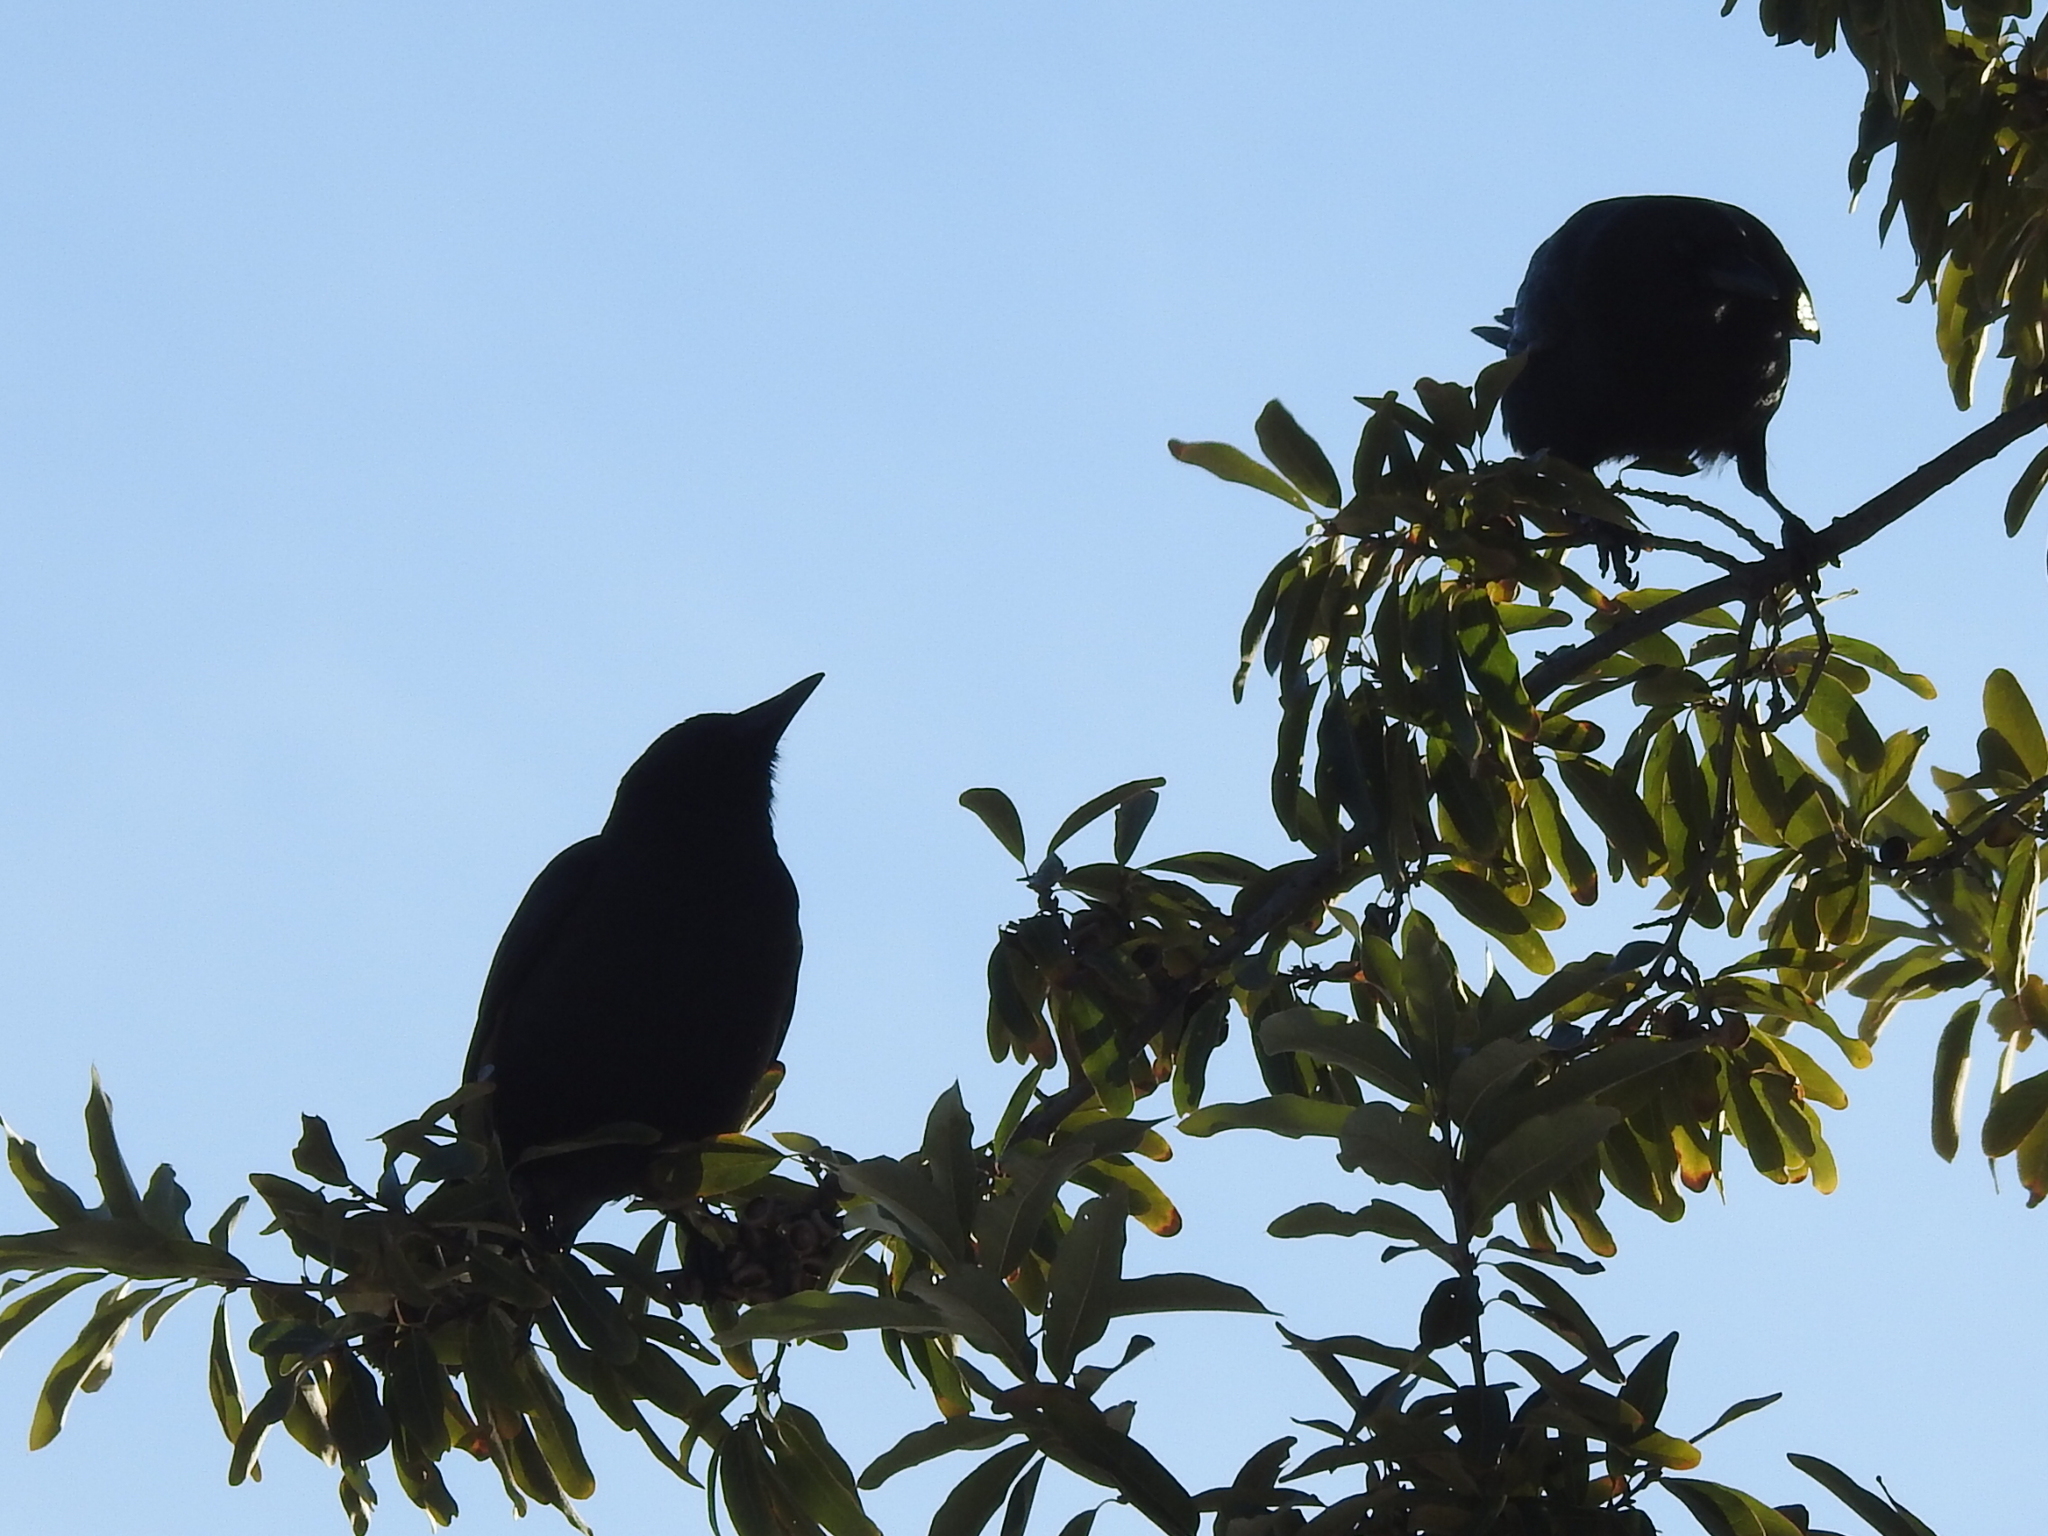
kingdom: Animalia
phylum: Chordata
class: Aves
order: Passeriformes
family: Corvidae
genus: Corvus
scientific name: Corvus brachyrhynchos
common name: American crow
